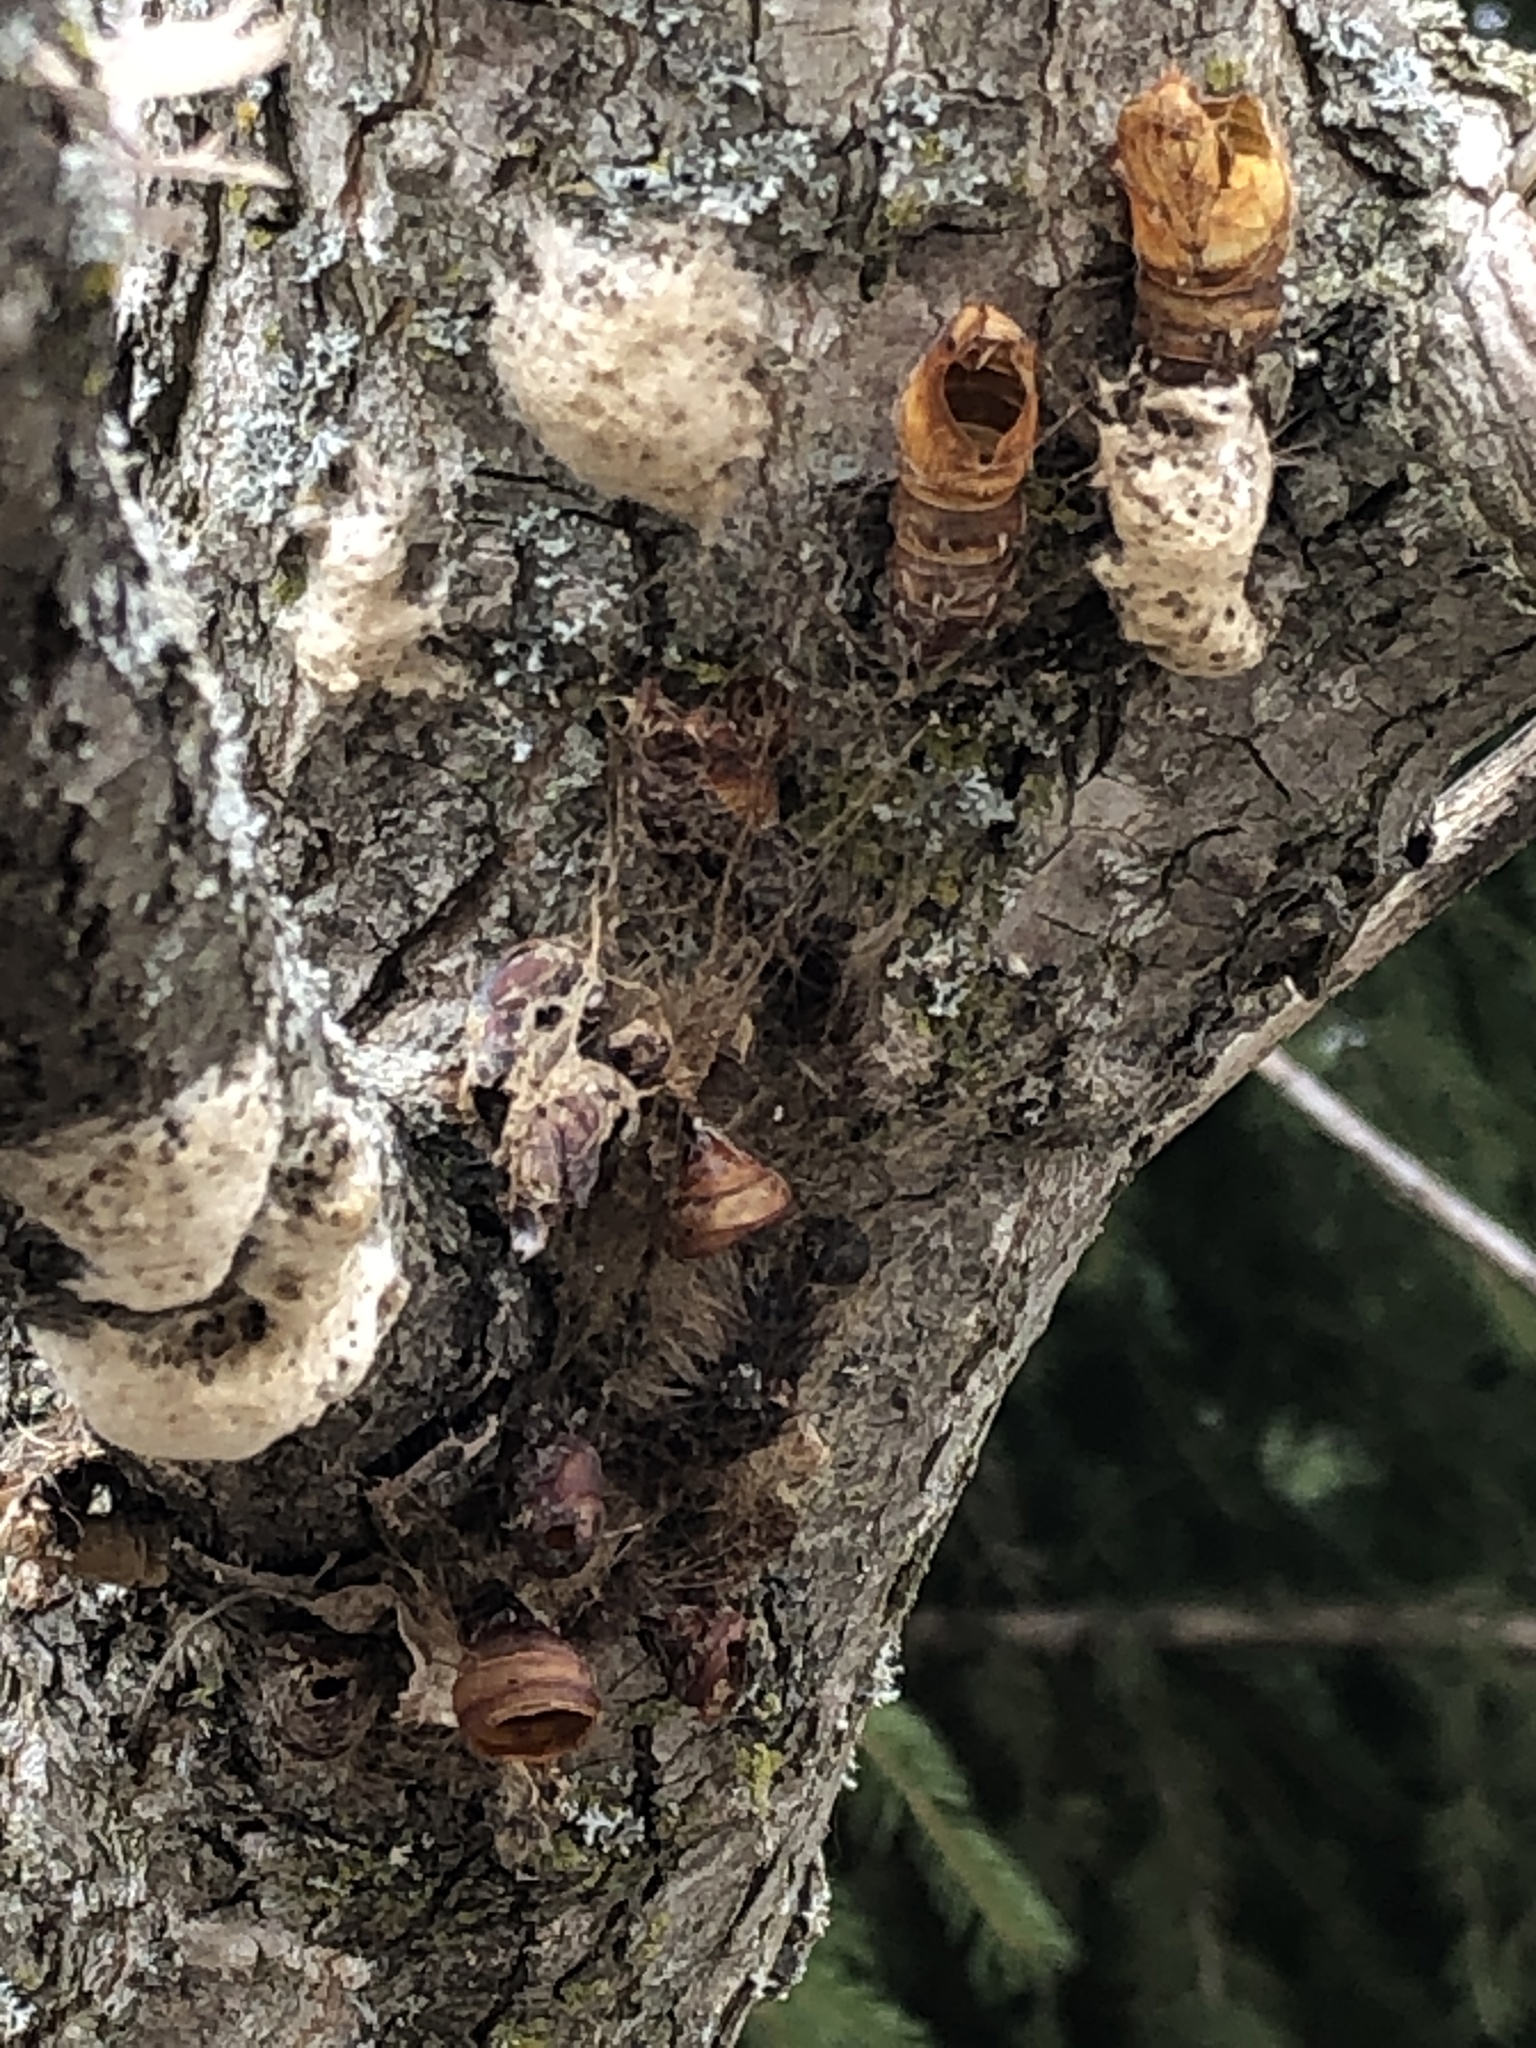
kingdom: Animalia
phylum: Arthropoda
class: Insecta
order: Lepidoptera
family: Erebidae
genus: Lymantria
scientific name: Lymantria dispar
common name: Gypsy moth
